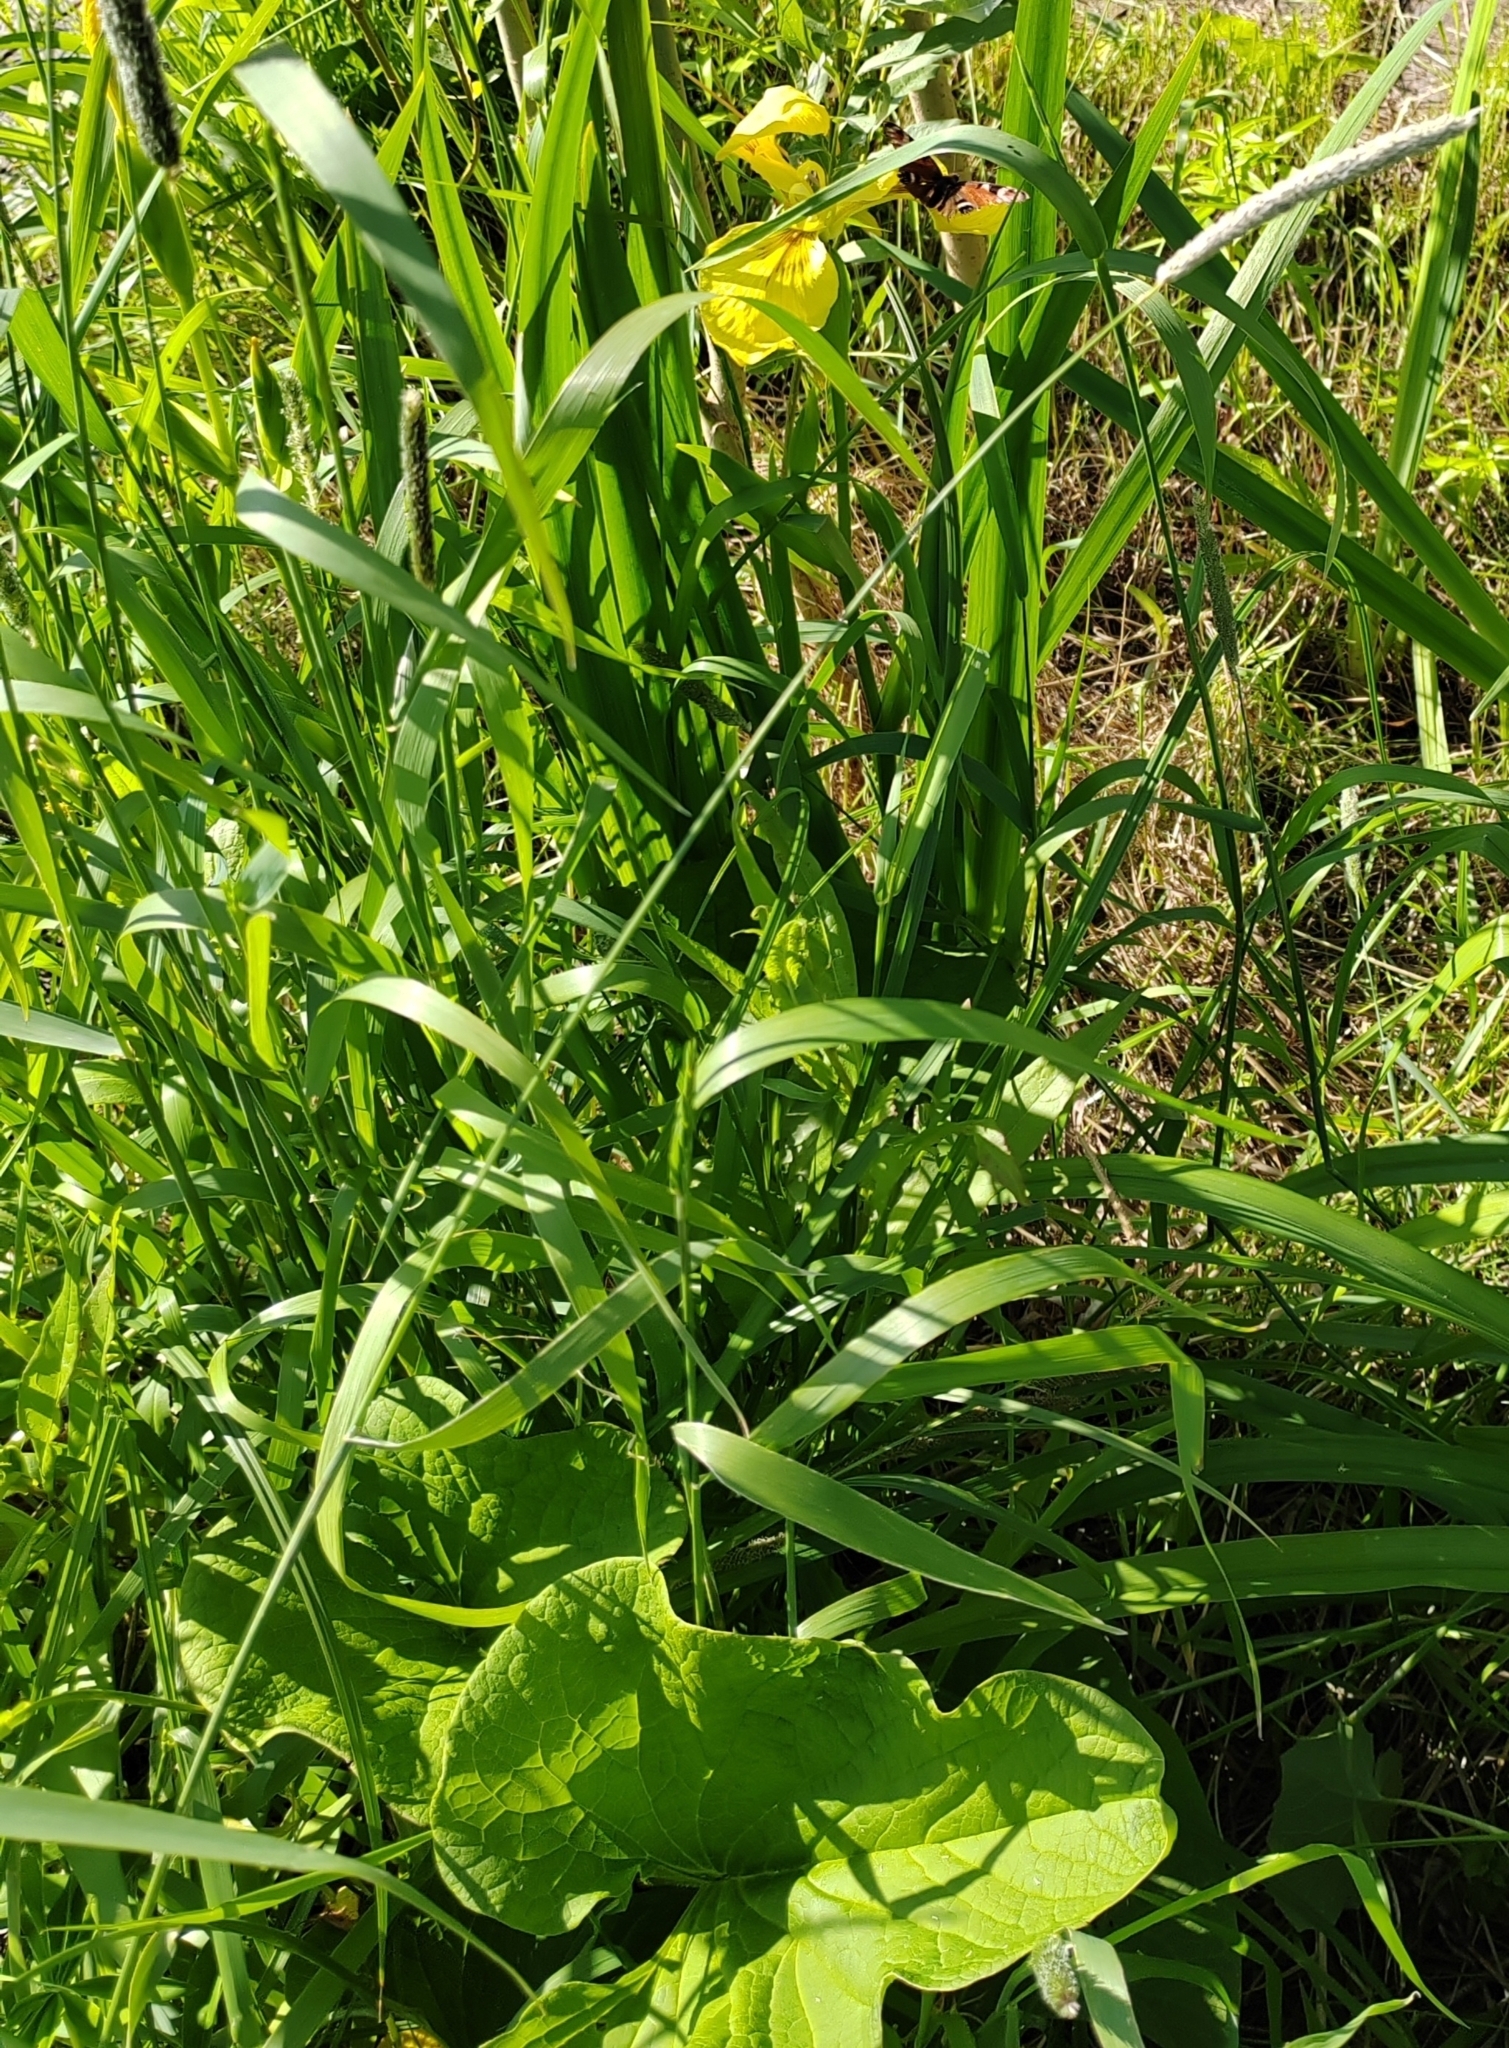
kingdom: Plantae
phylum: Tracheophyta
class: Liliopsida
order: Asparagales
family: Iridaceae
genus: Iris
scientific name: Iris pseudacorus
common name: Yellow flag
